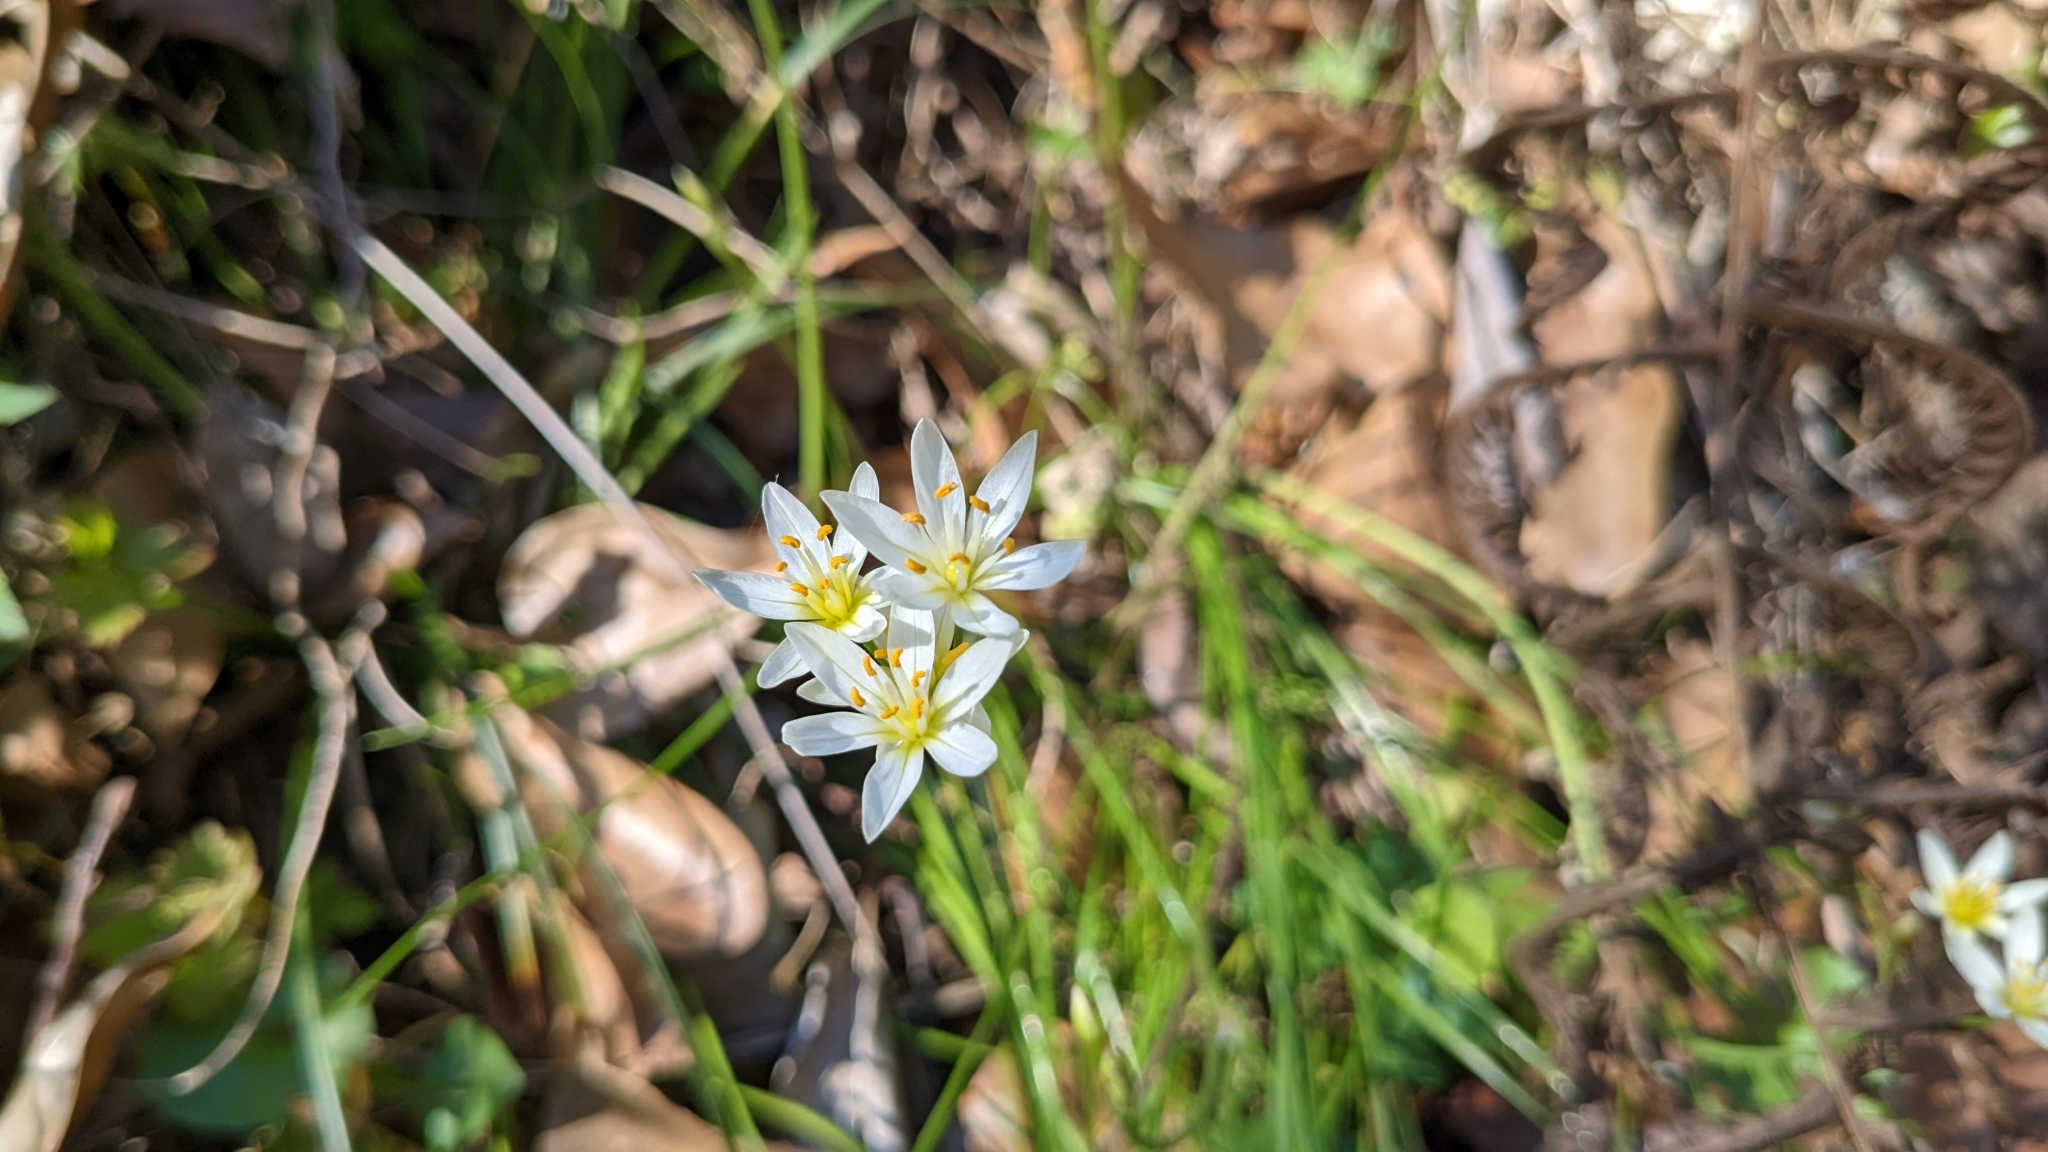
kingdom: Plantae
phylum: Tracheophyta
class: Liliopsida
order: Asparagales
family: Amaryllidaceae
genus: Nothoscordum
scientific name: Nothoscordum bivalve
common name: Crow-poison
